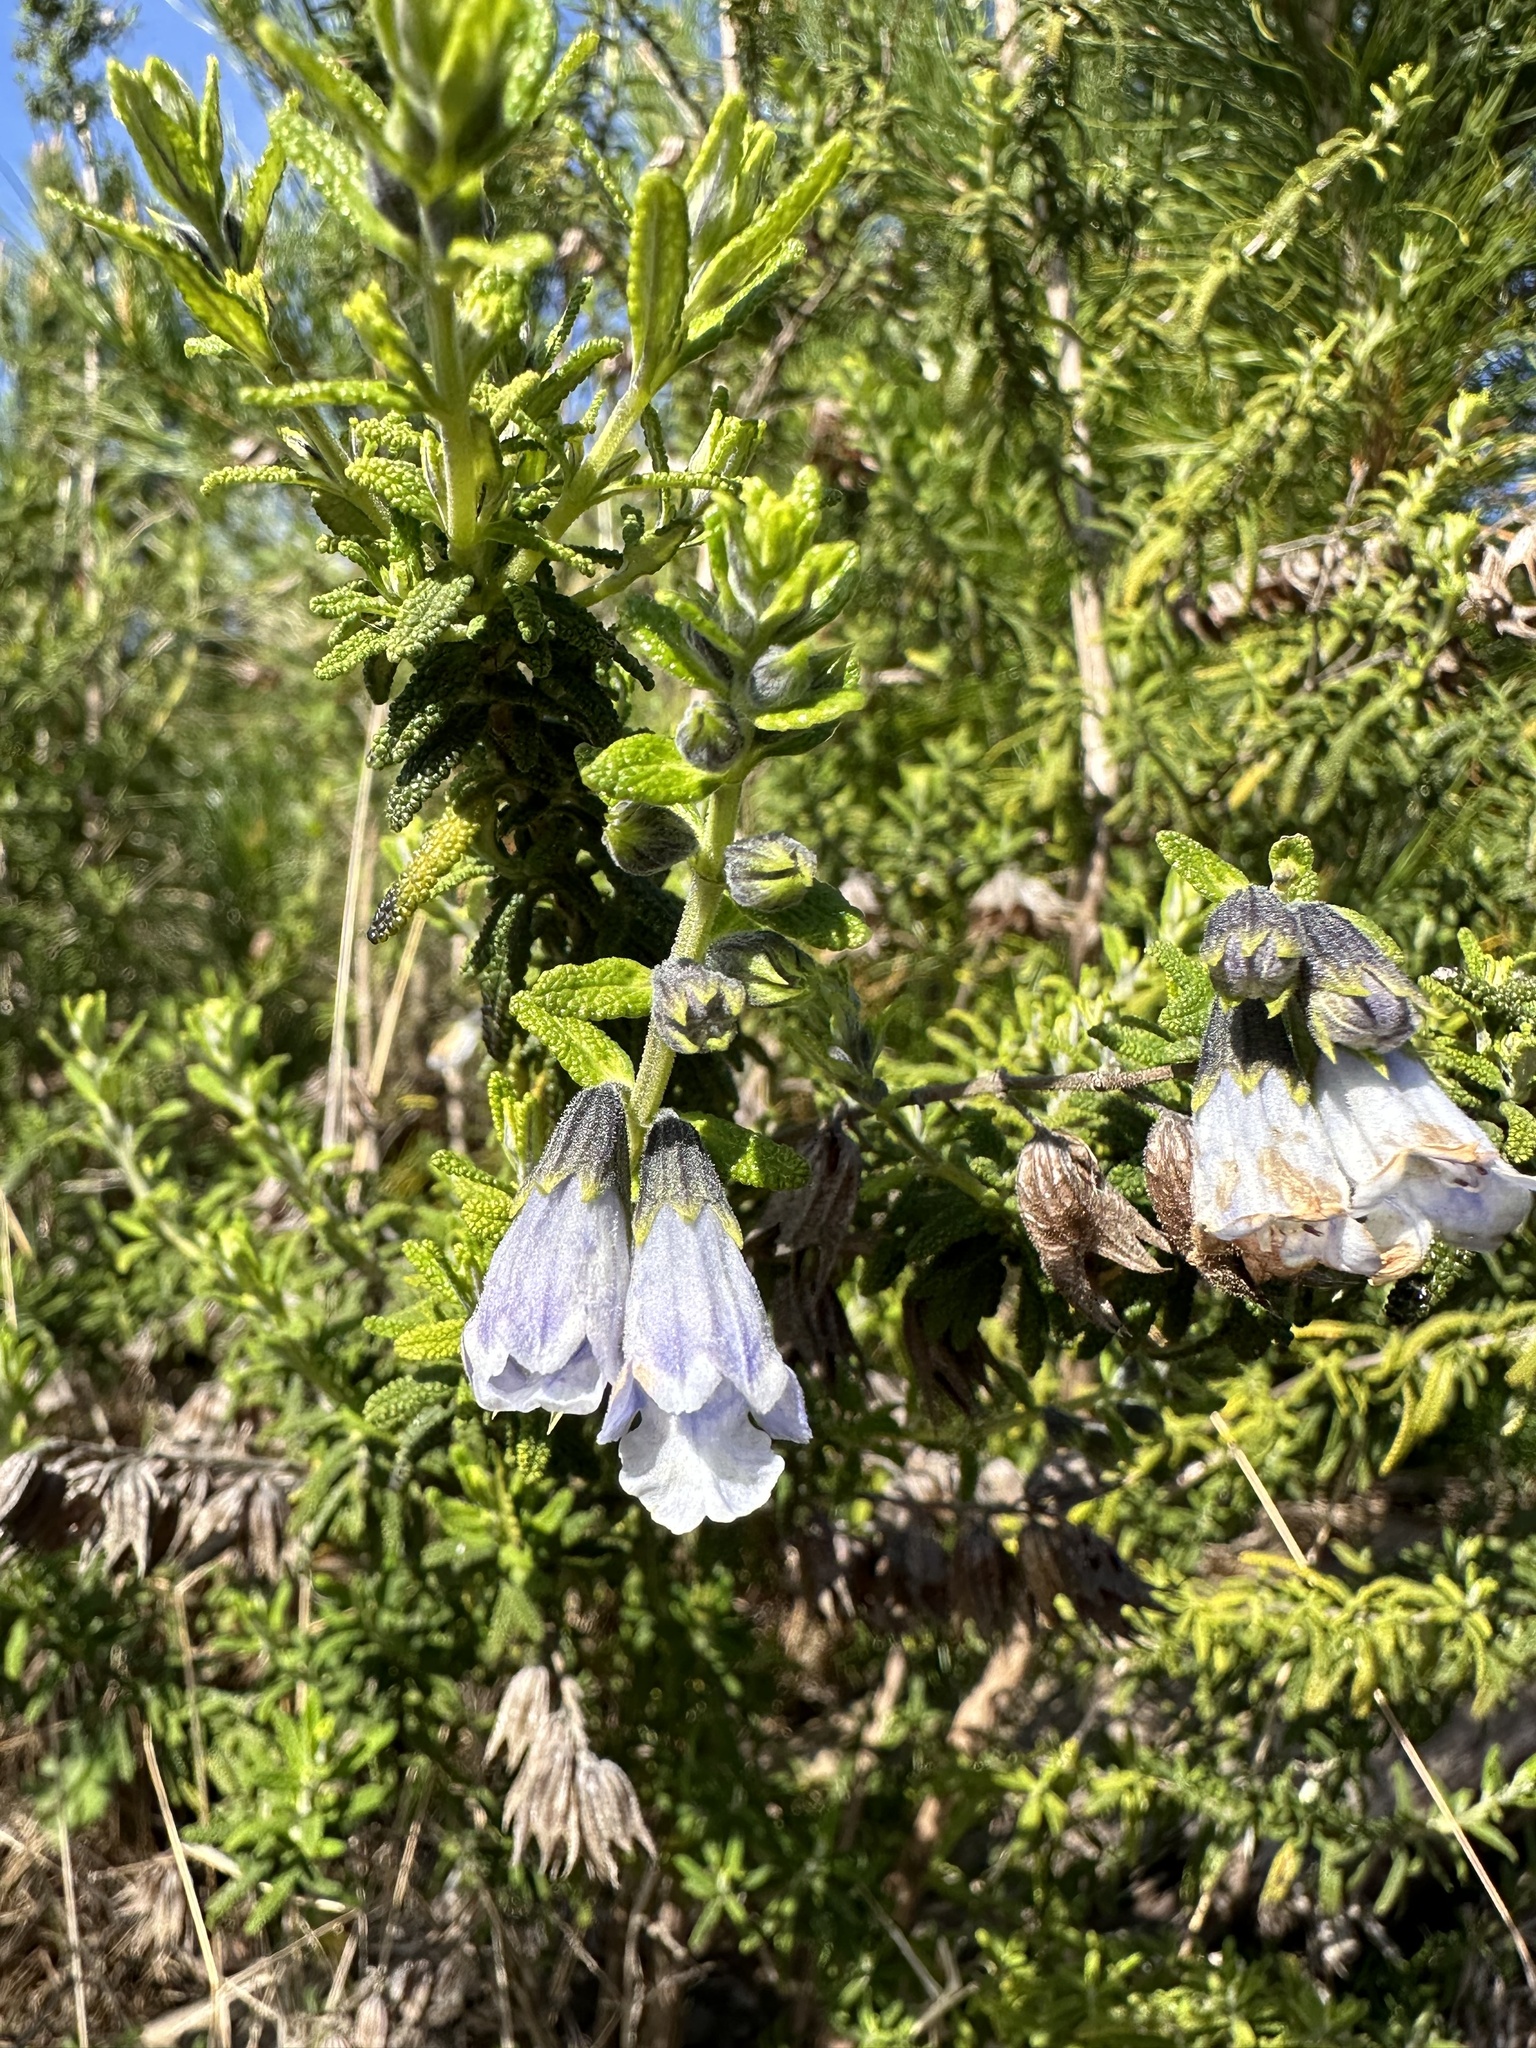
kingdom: Plantae
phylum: Tracheophyta
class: Magnoliopsida
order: Lamiales
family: Lamiaceae
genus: Lepechinia
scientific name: Lepechinia chilensis
